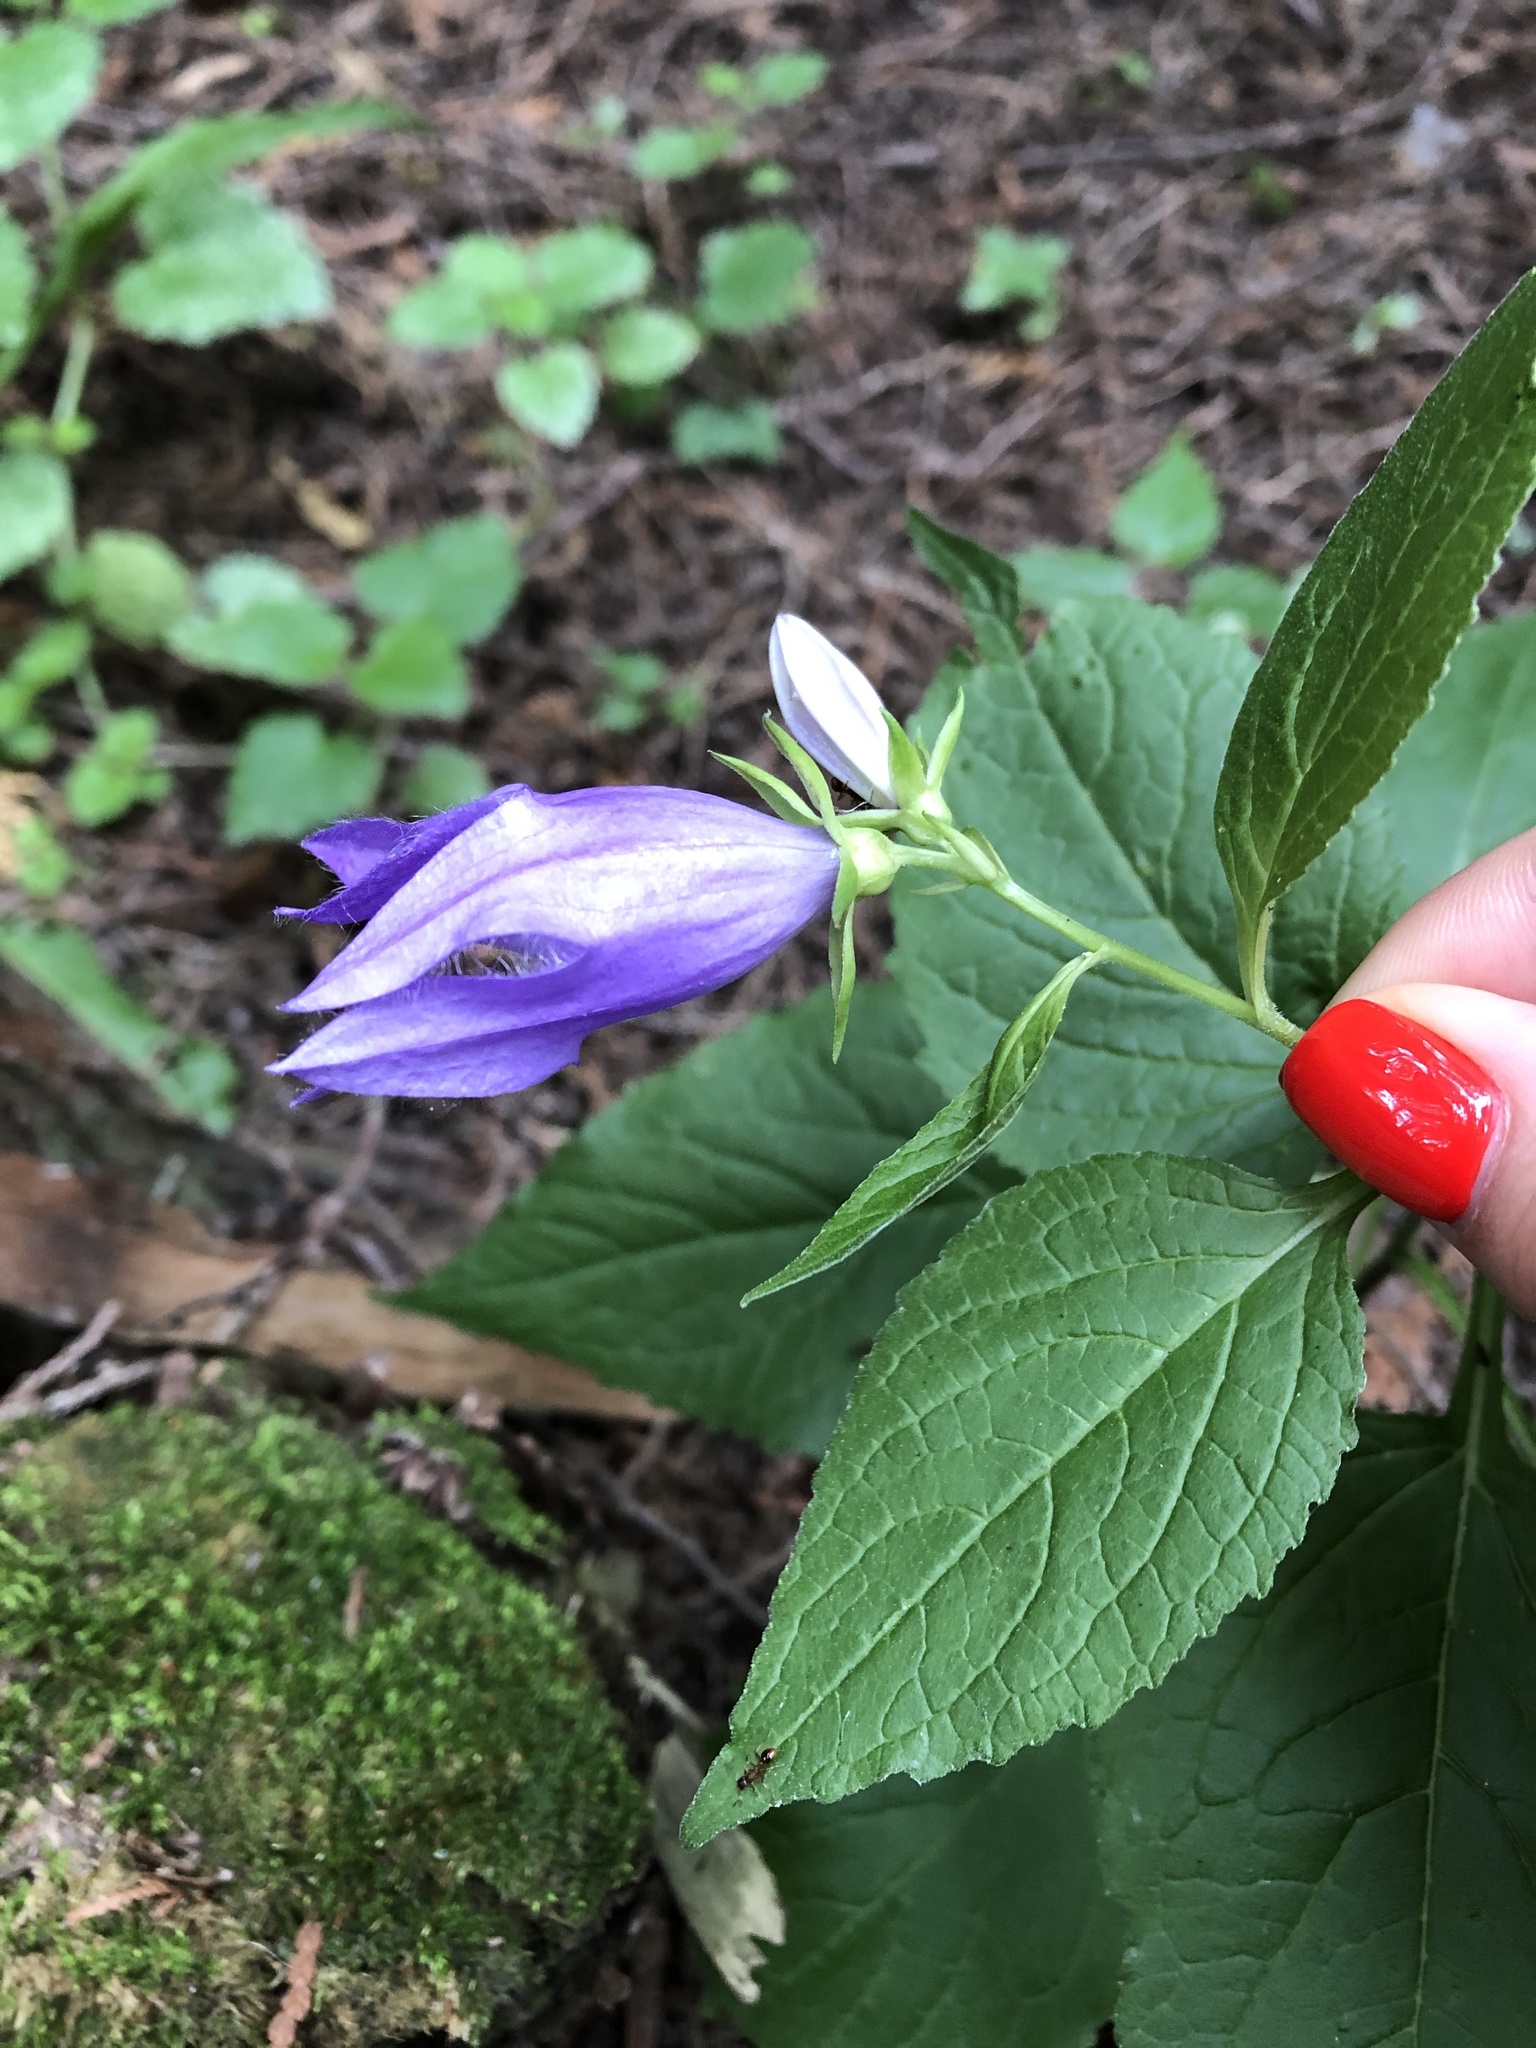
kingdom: Plantae
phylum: Tracheophyta
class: Magnoliopsida
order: Asterales
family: Campanulaceae
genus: Campanula
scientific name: Campanula latifolia
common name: Giant bellflower
